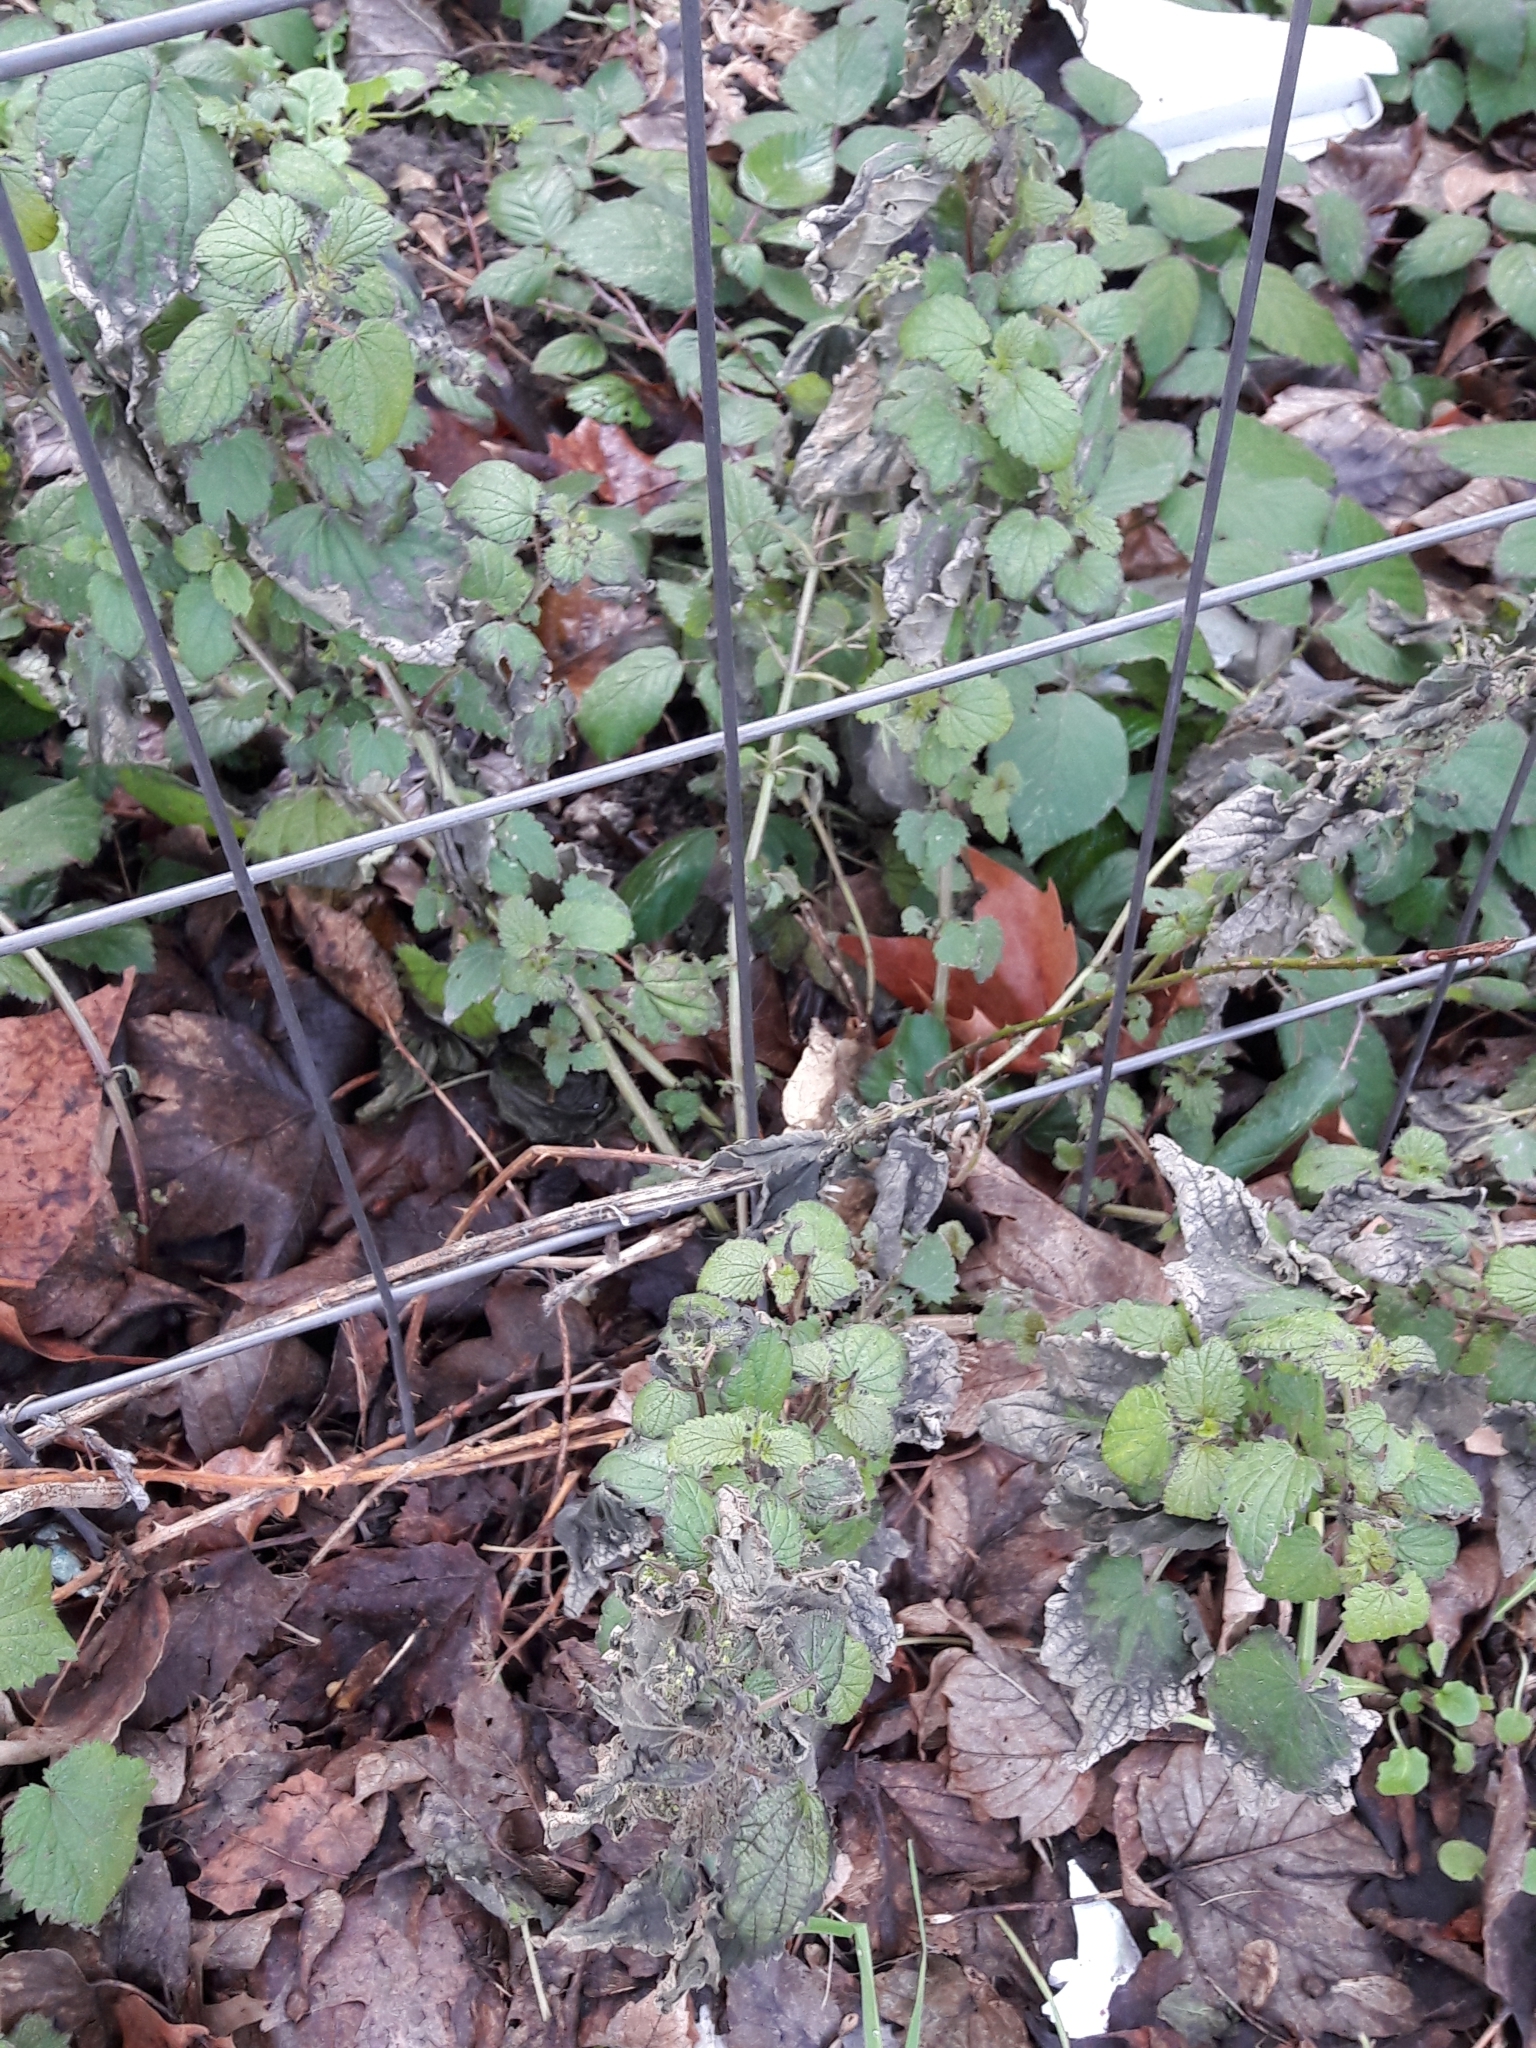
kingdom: Plantae
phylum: Tracheophyta
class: Magnoliopsida
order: Rosales
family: Urticaceae
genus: Urtica
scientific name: Urtica dioica
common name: Common nettle
